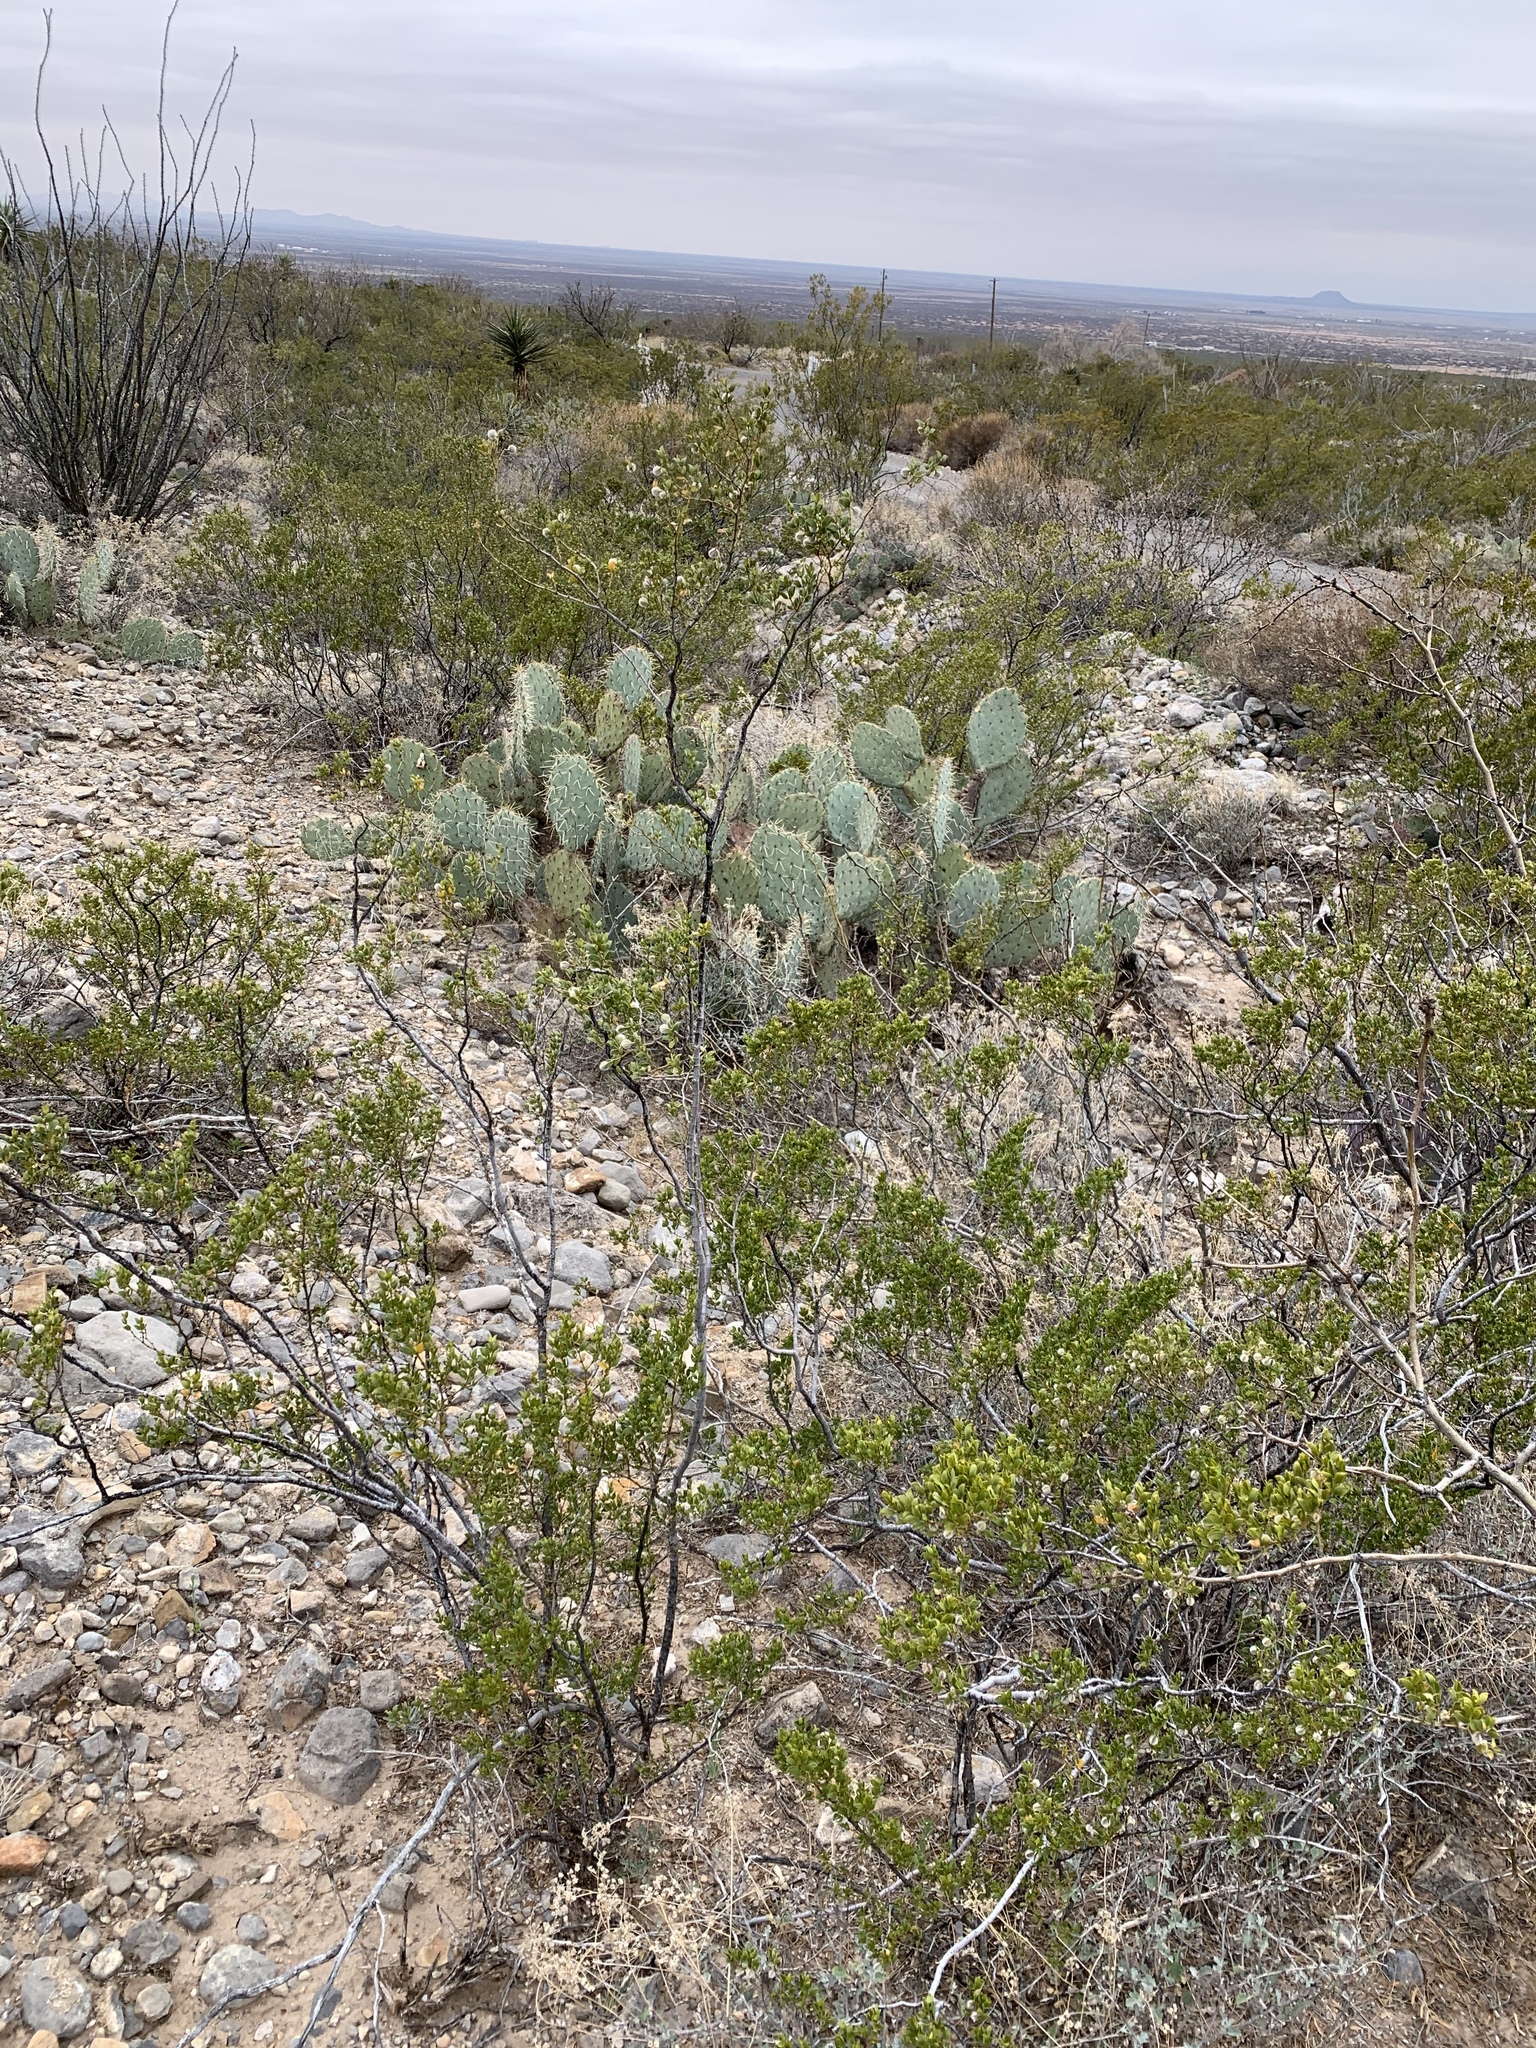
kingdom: Plantae
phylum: Tracheophyta
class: Magnoliopsida
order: Zygophyllales
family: Zygophyllaceae
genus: Larrea
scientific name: Larrea tridentata
